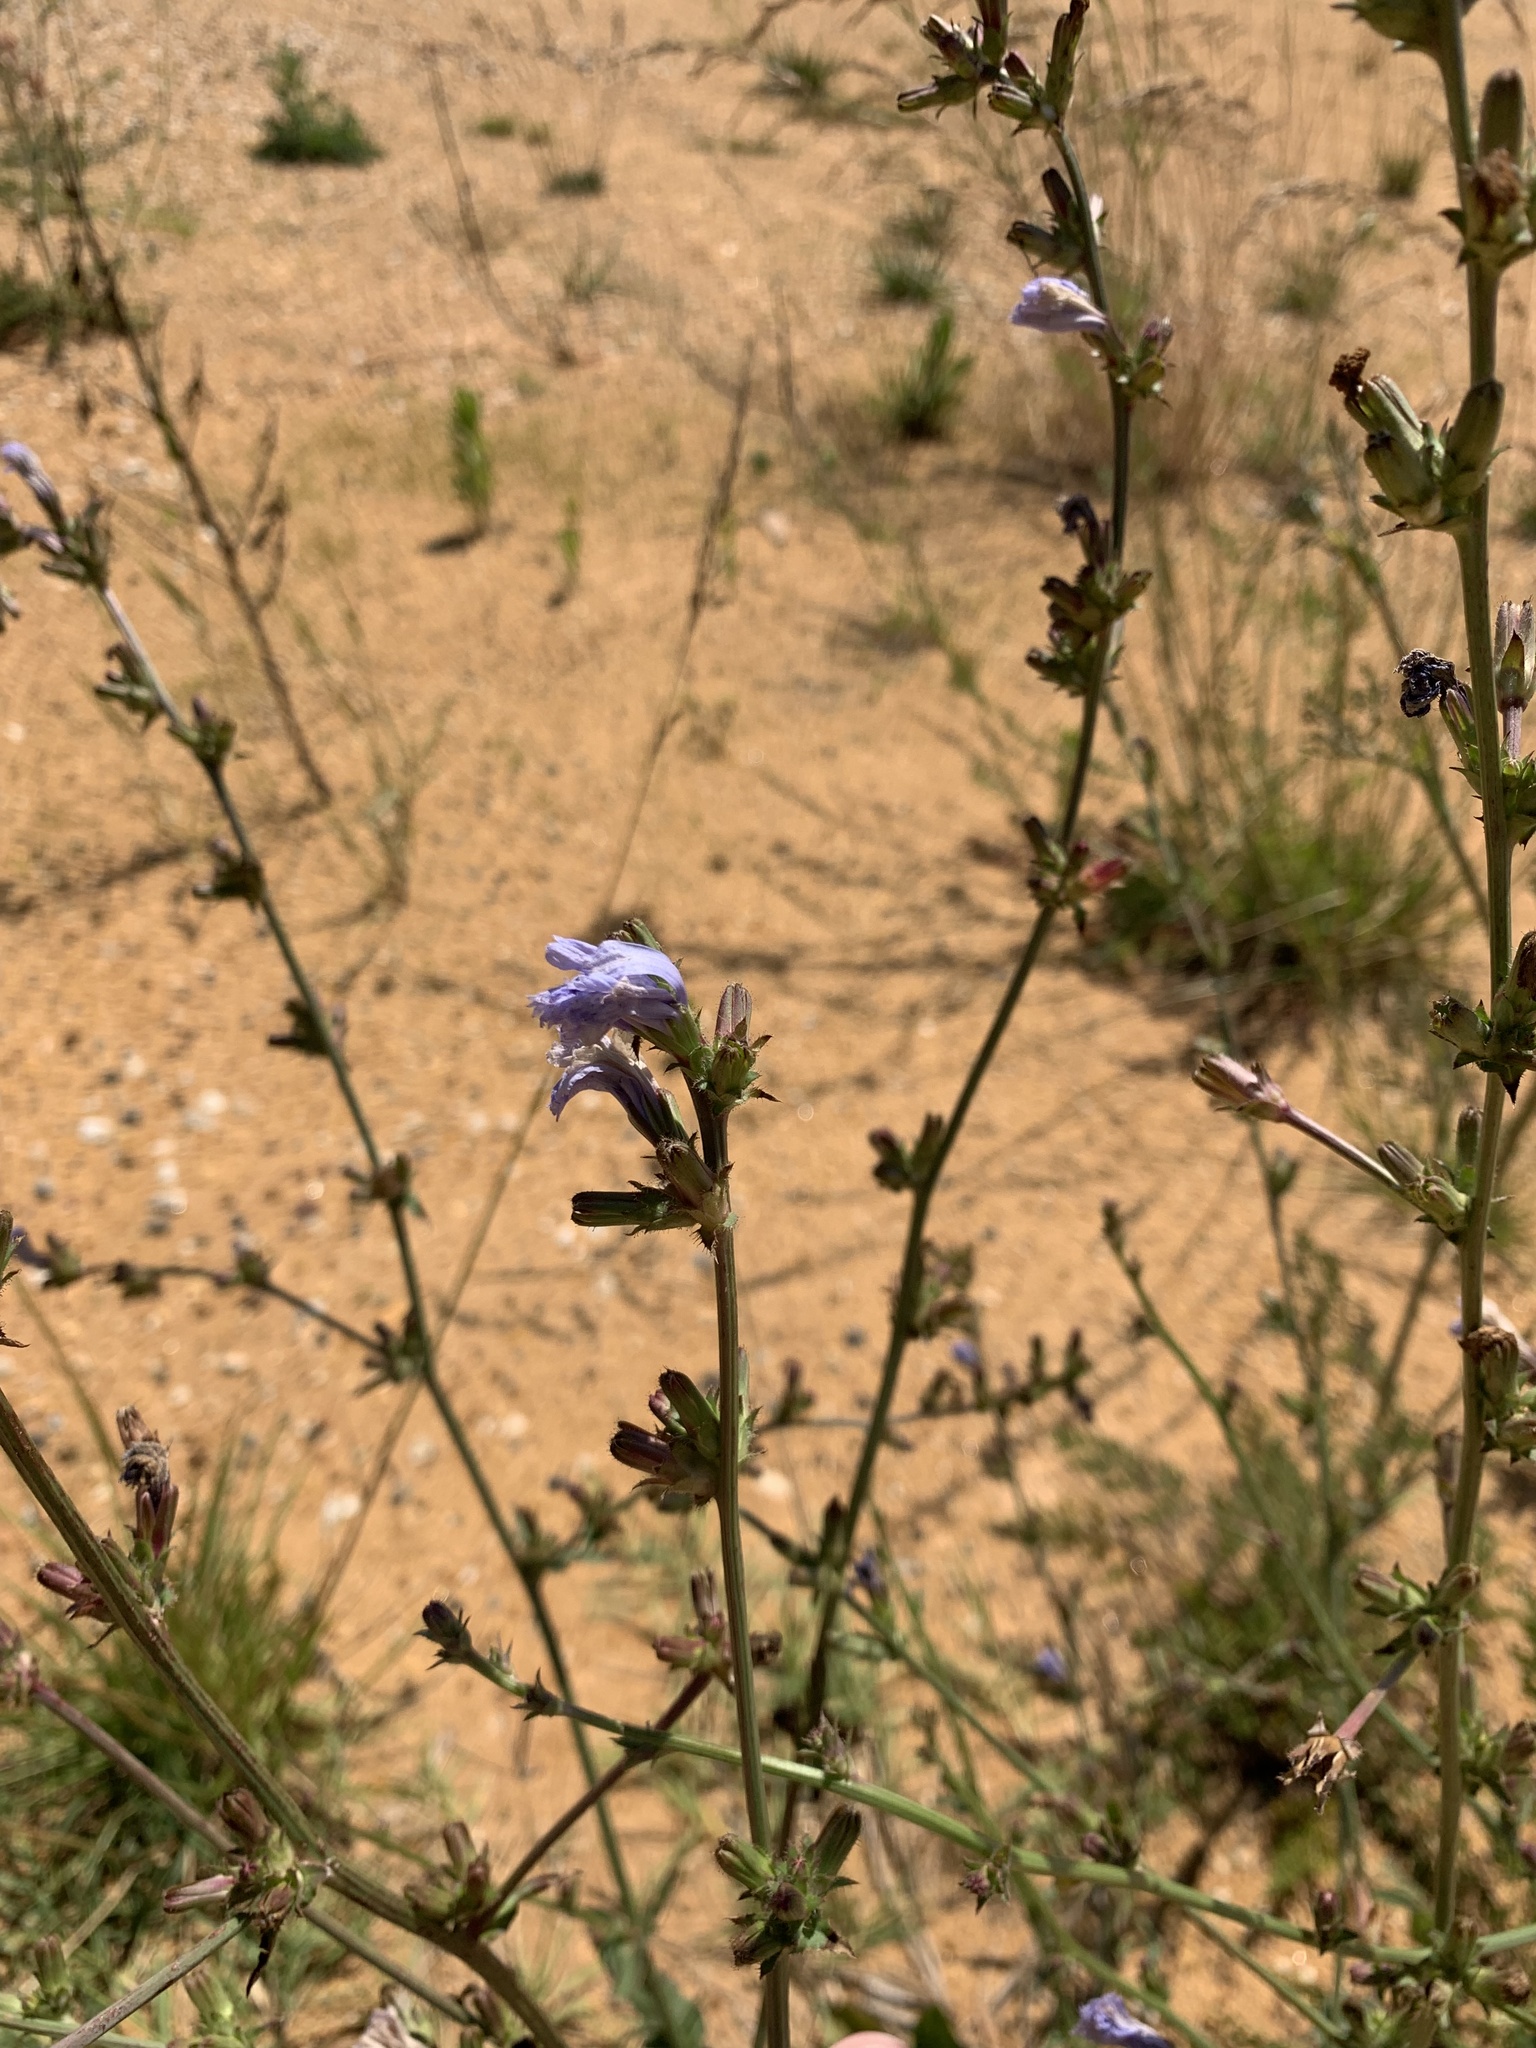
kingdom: Plantae
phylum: Tracheophyta
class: Magnoliopsida
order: Asterales
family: Asteraceae
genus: Cichorium
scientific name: Cichorium intybus
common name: Chicory
